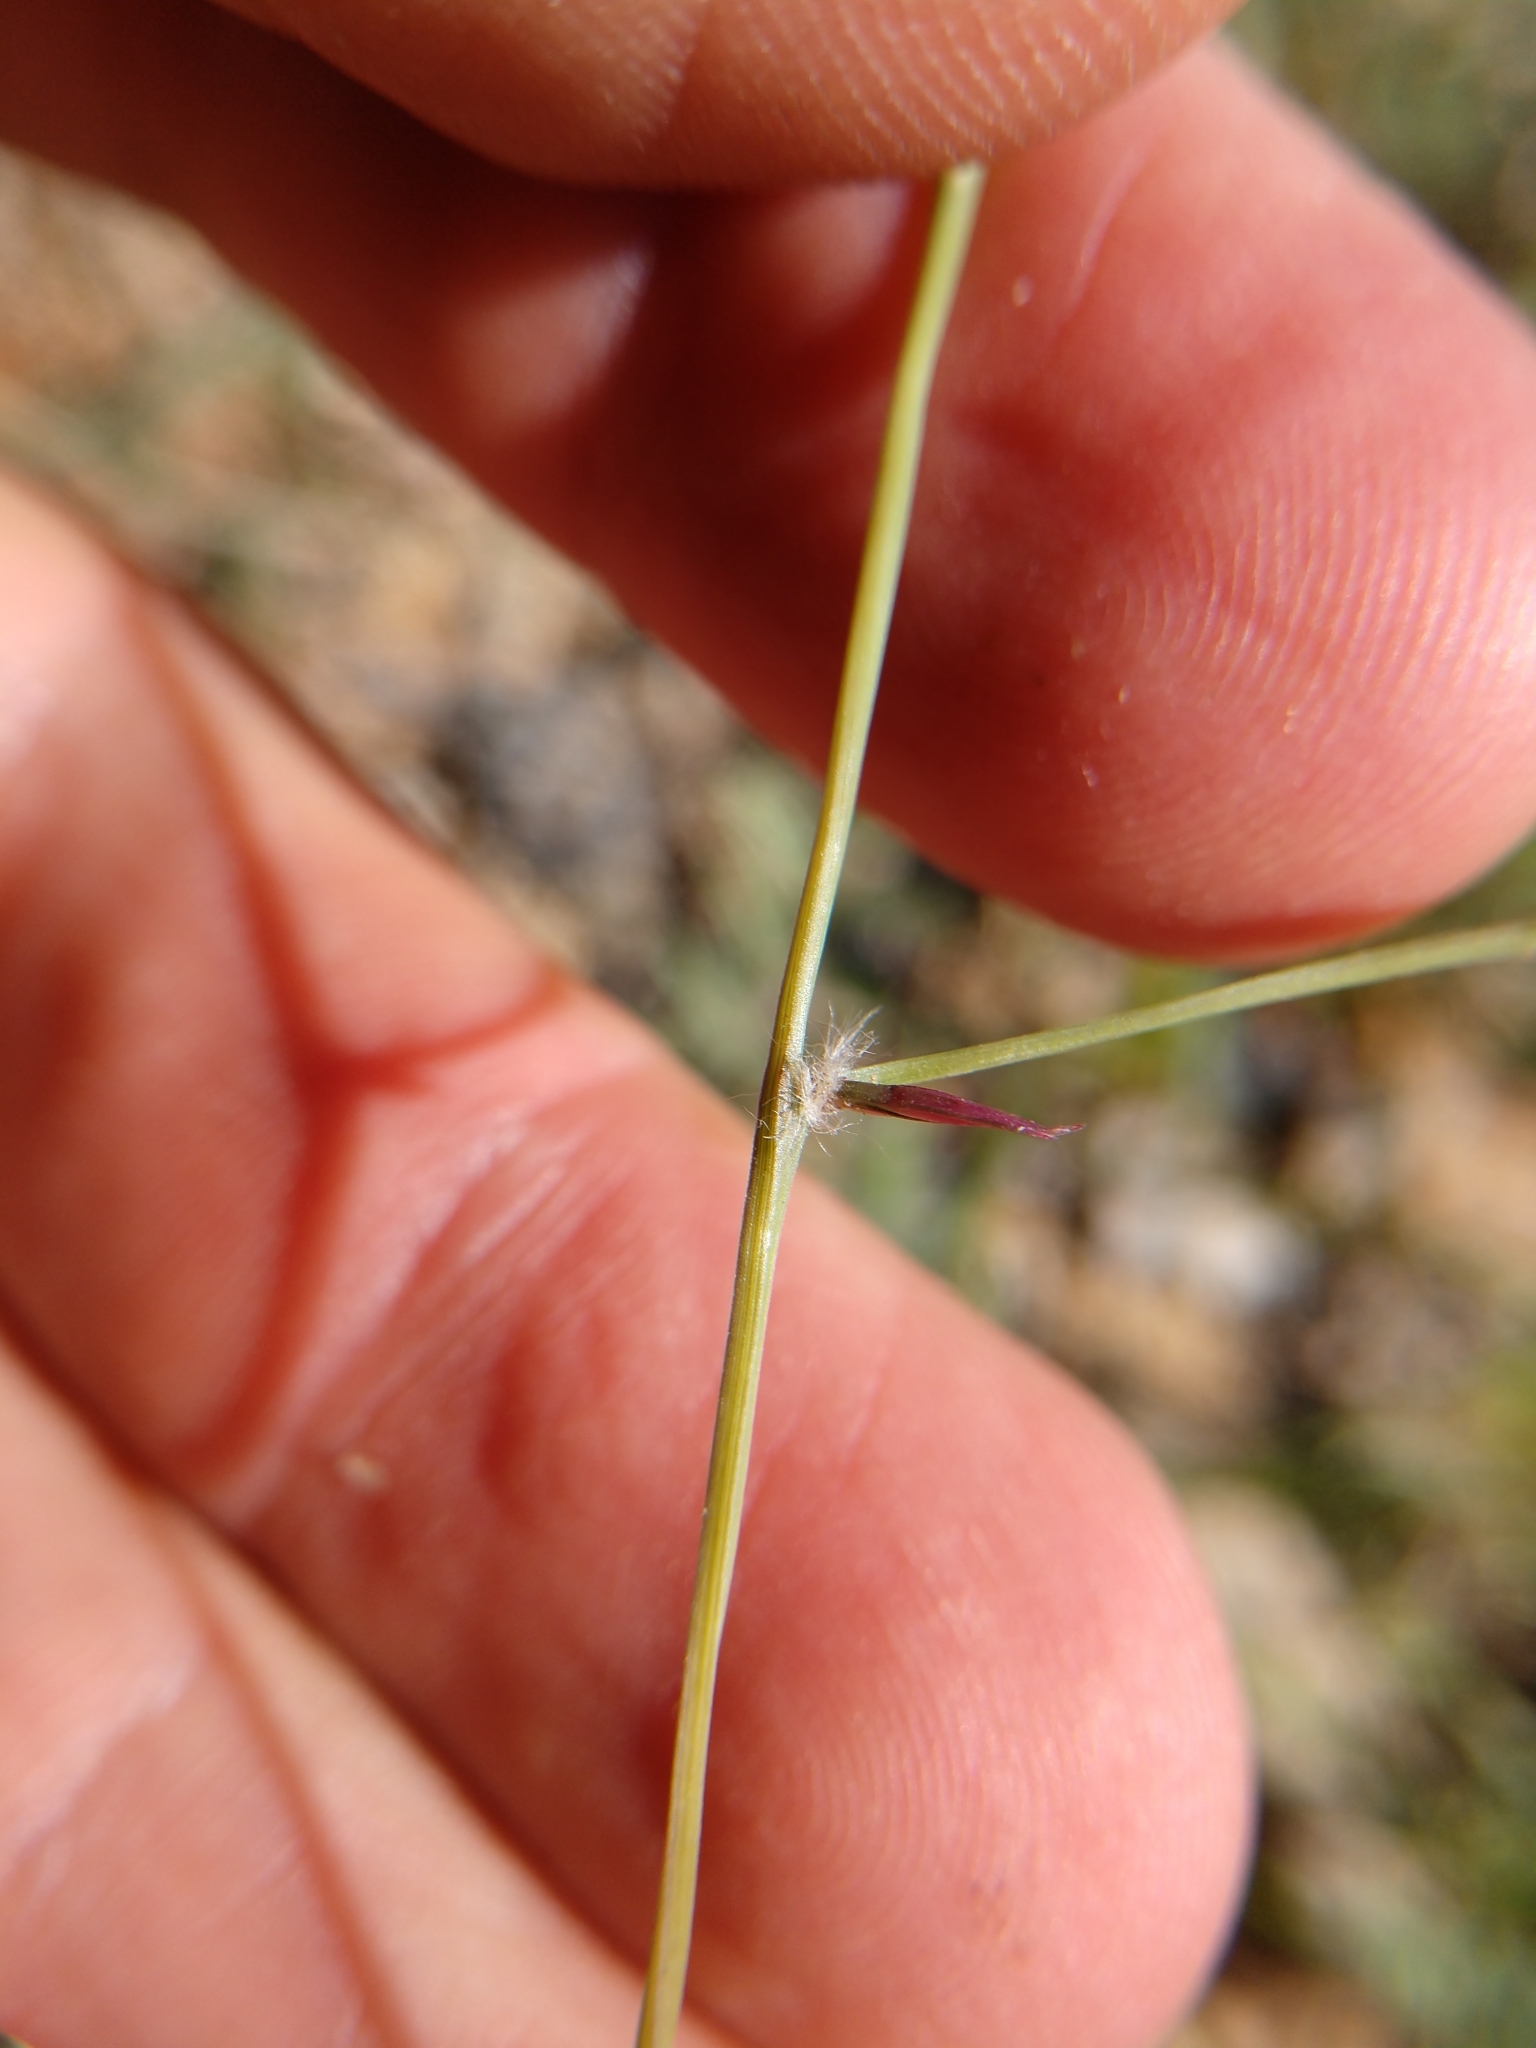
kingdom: Plantae
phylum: Tracheophyta
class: Liliopsida
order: Poales
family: Poaceae
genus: Eragrostis
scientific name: Eragrostis sessilispica
